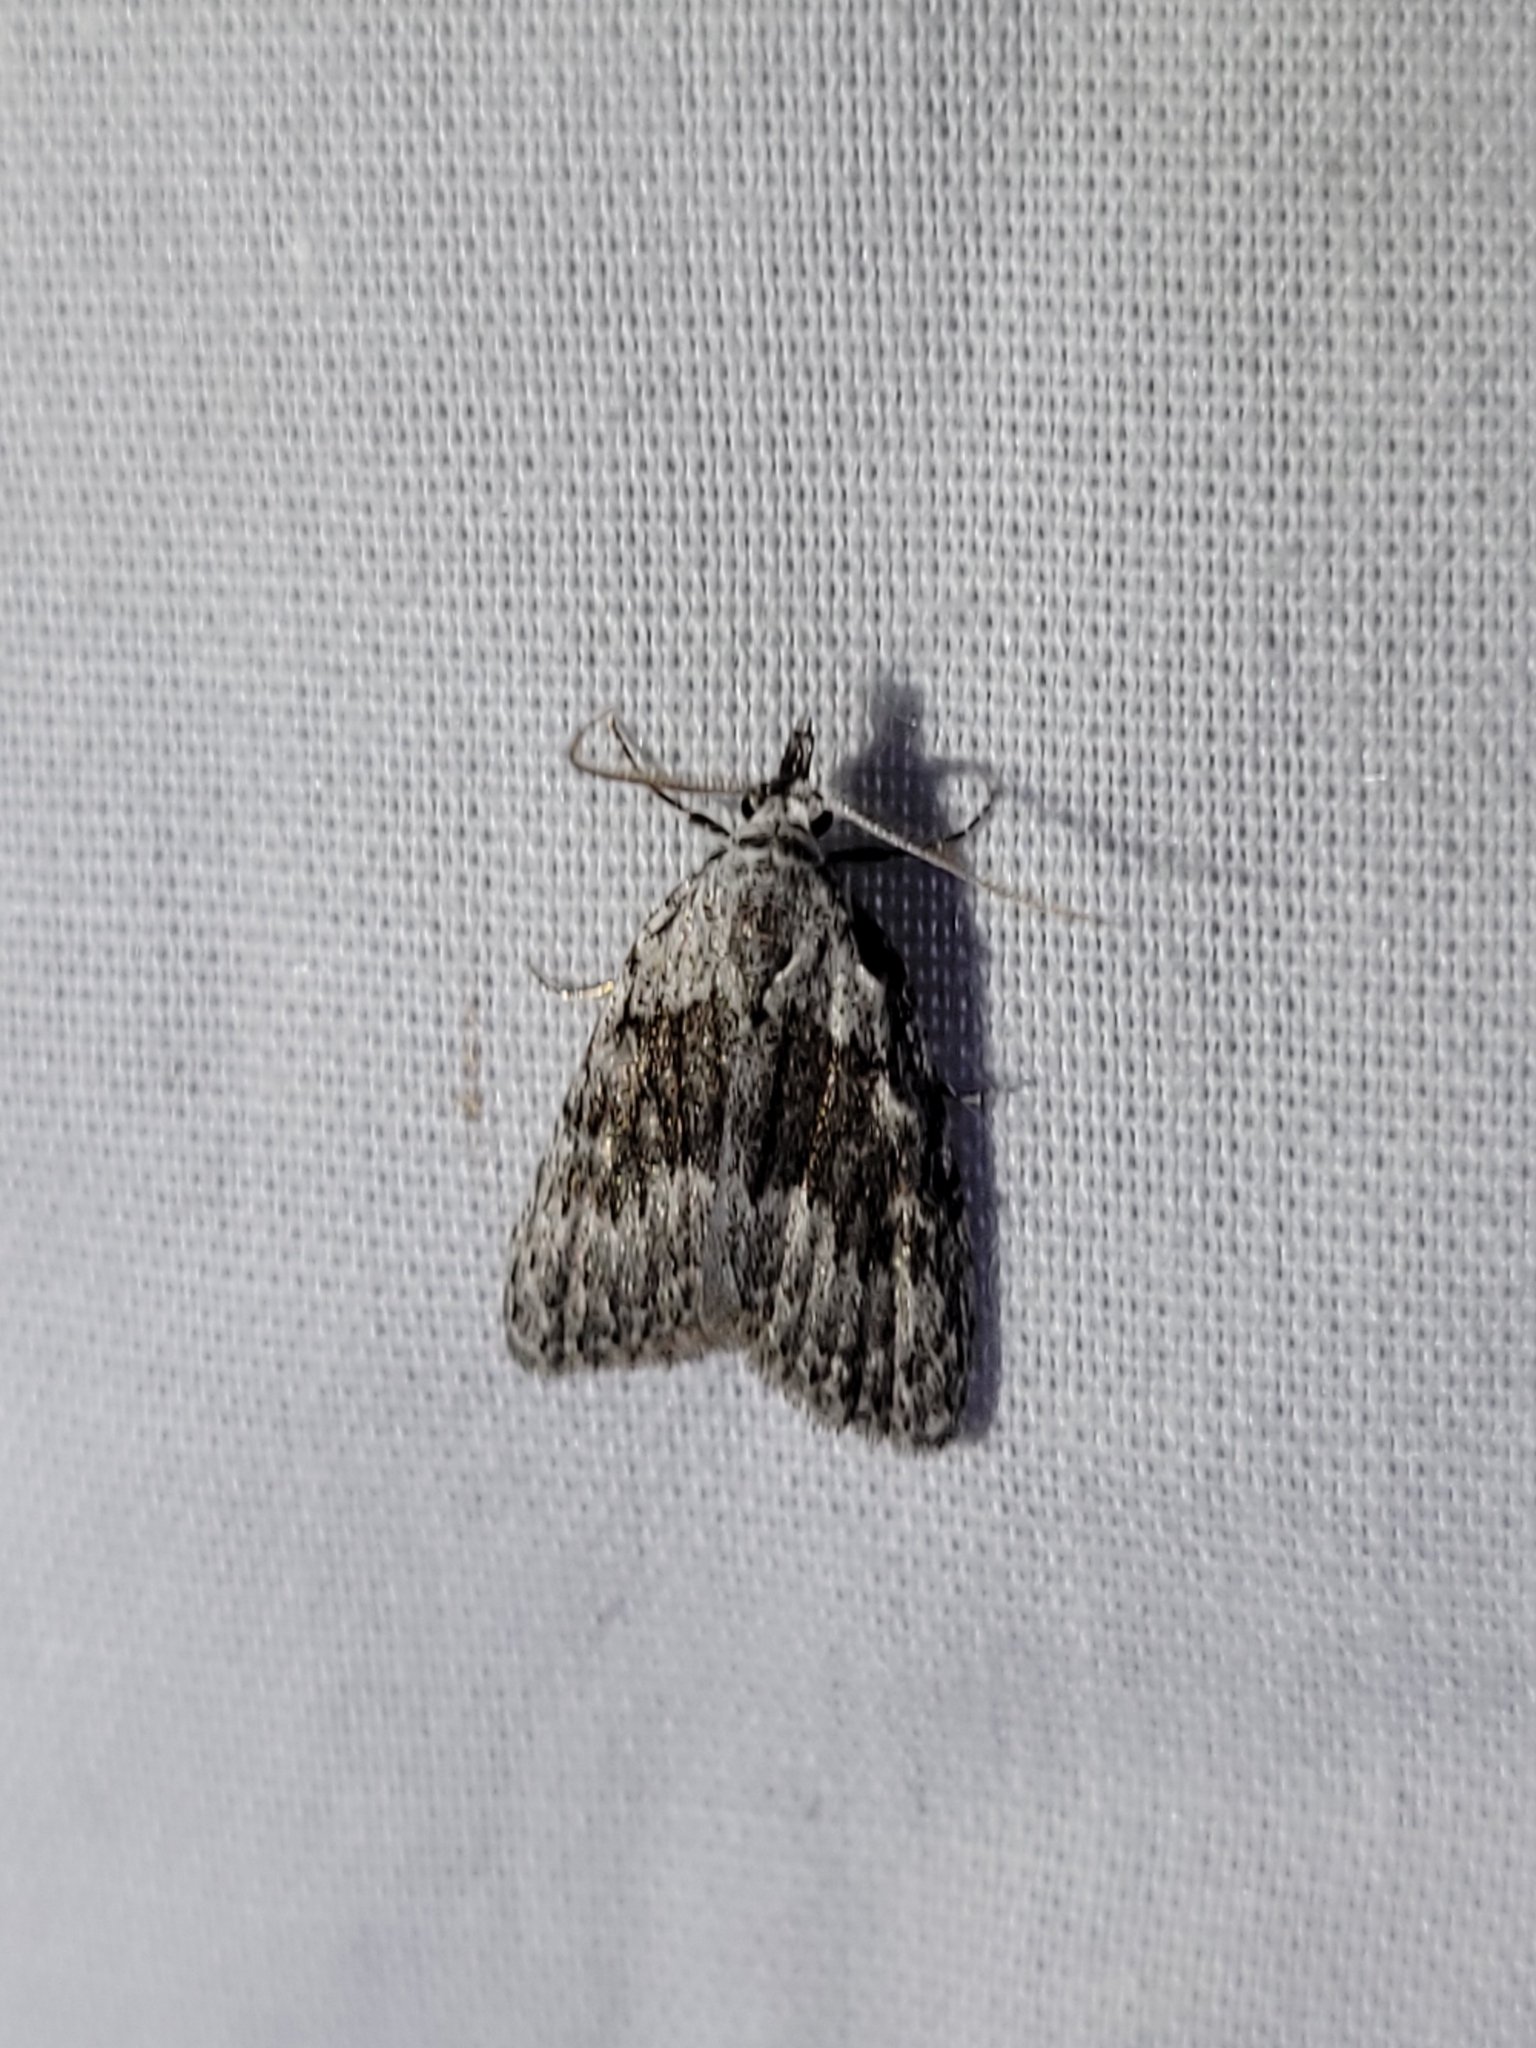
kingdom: Animalia
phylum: Arthropoda
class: Insecta
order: Lepidoptera
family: Nolidae
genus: Nola
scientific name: Nola clethrae
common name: Sweet pepperbush nola moth
